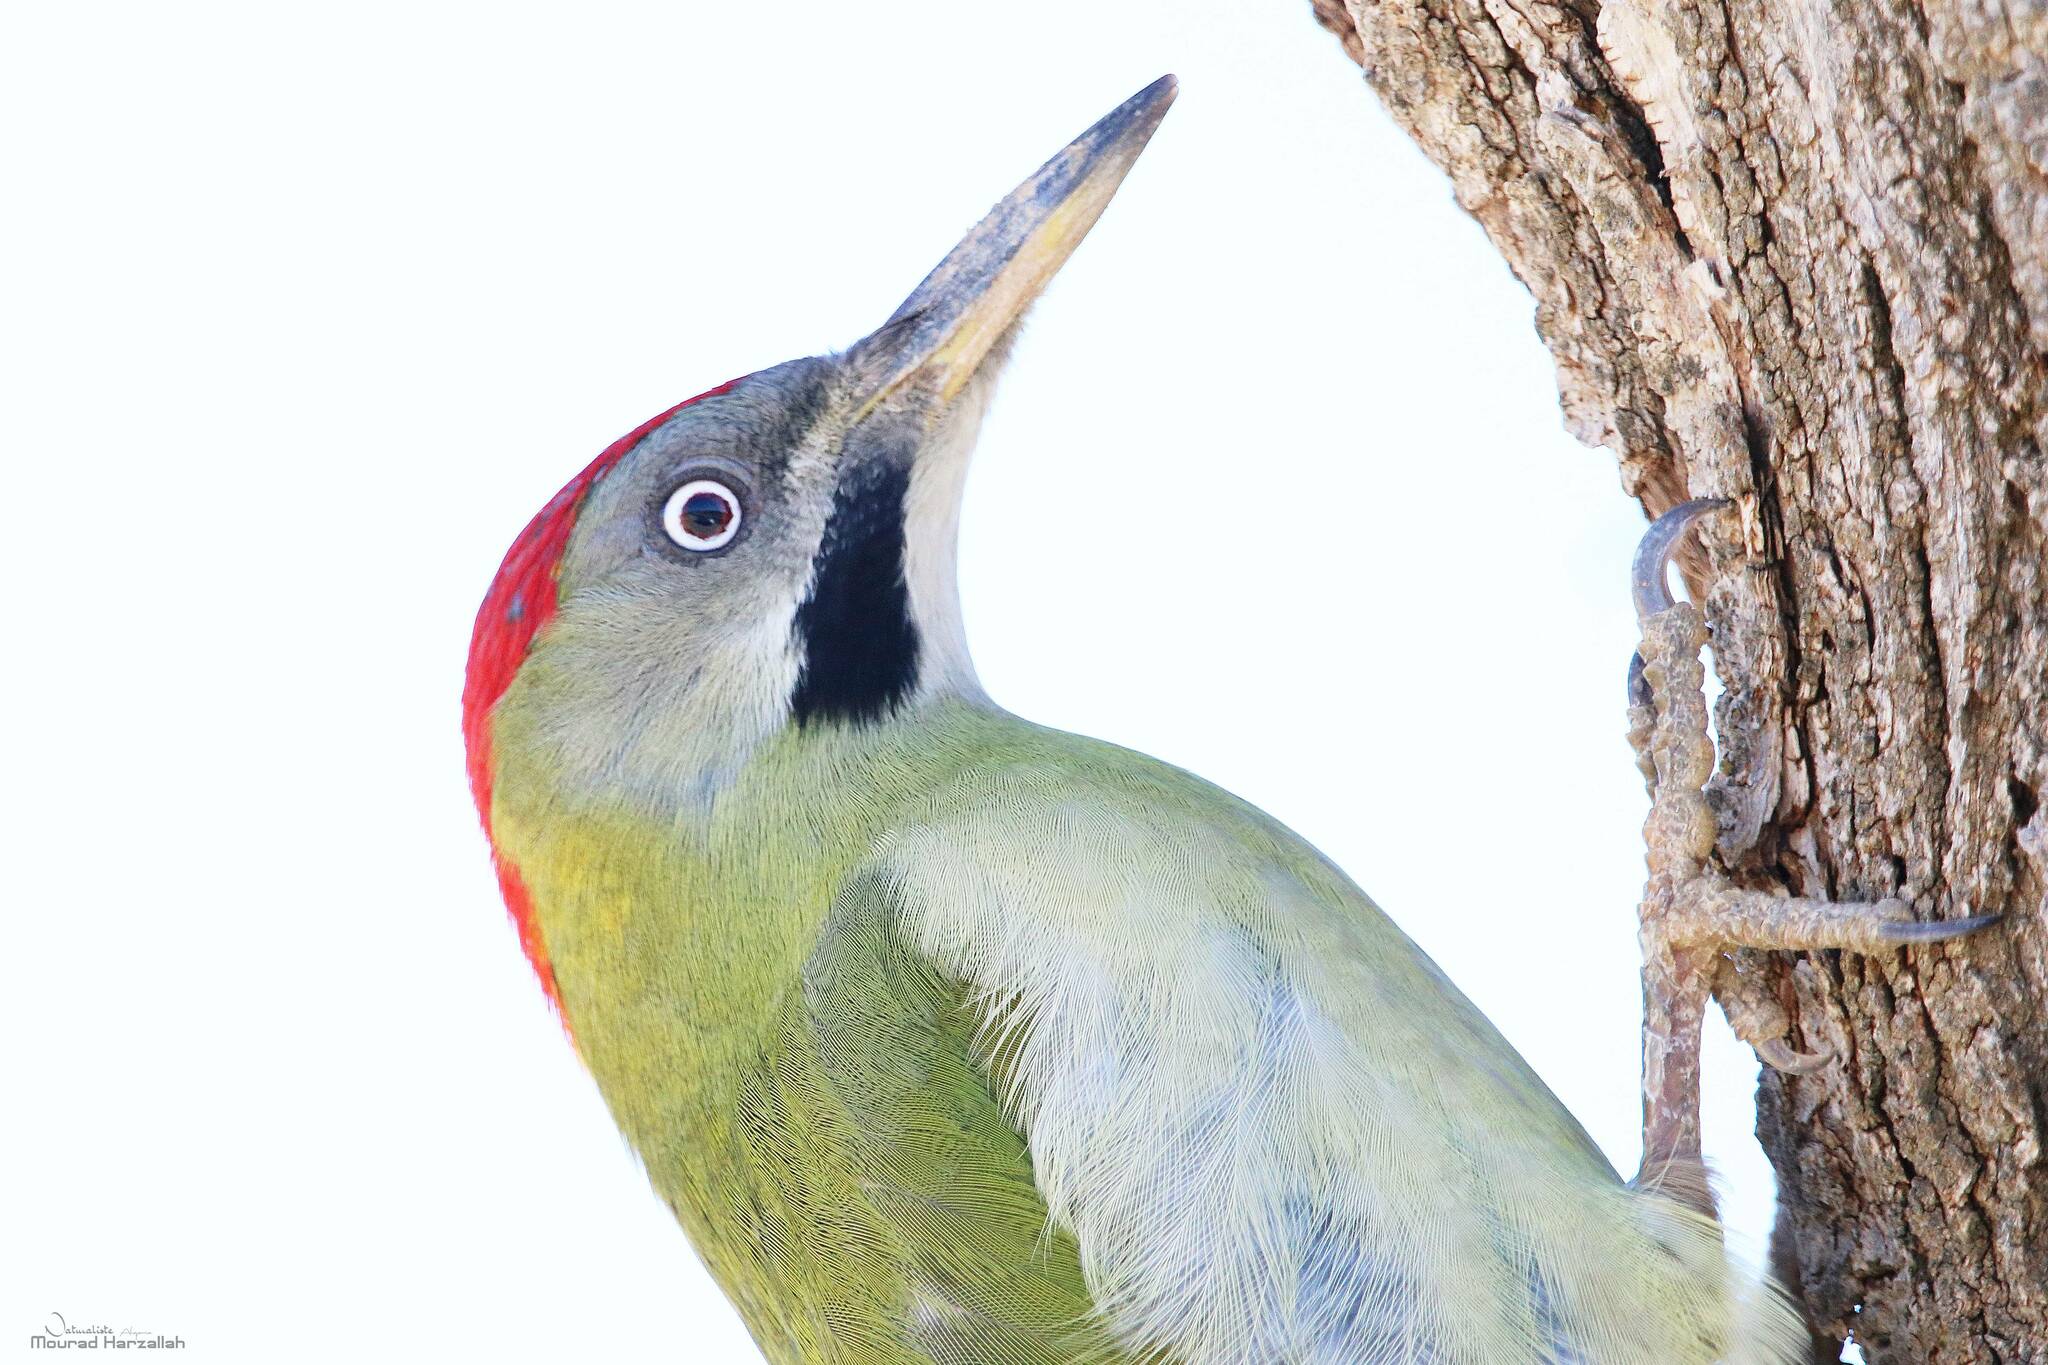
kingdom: Animalia
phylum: Chordata
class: Aves
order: Piciformes
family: Picidae
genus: Picus
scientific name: Picus vaillantii
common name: Levaillant's woodpecker
